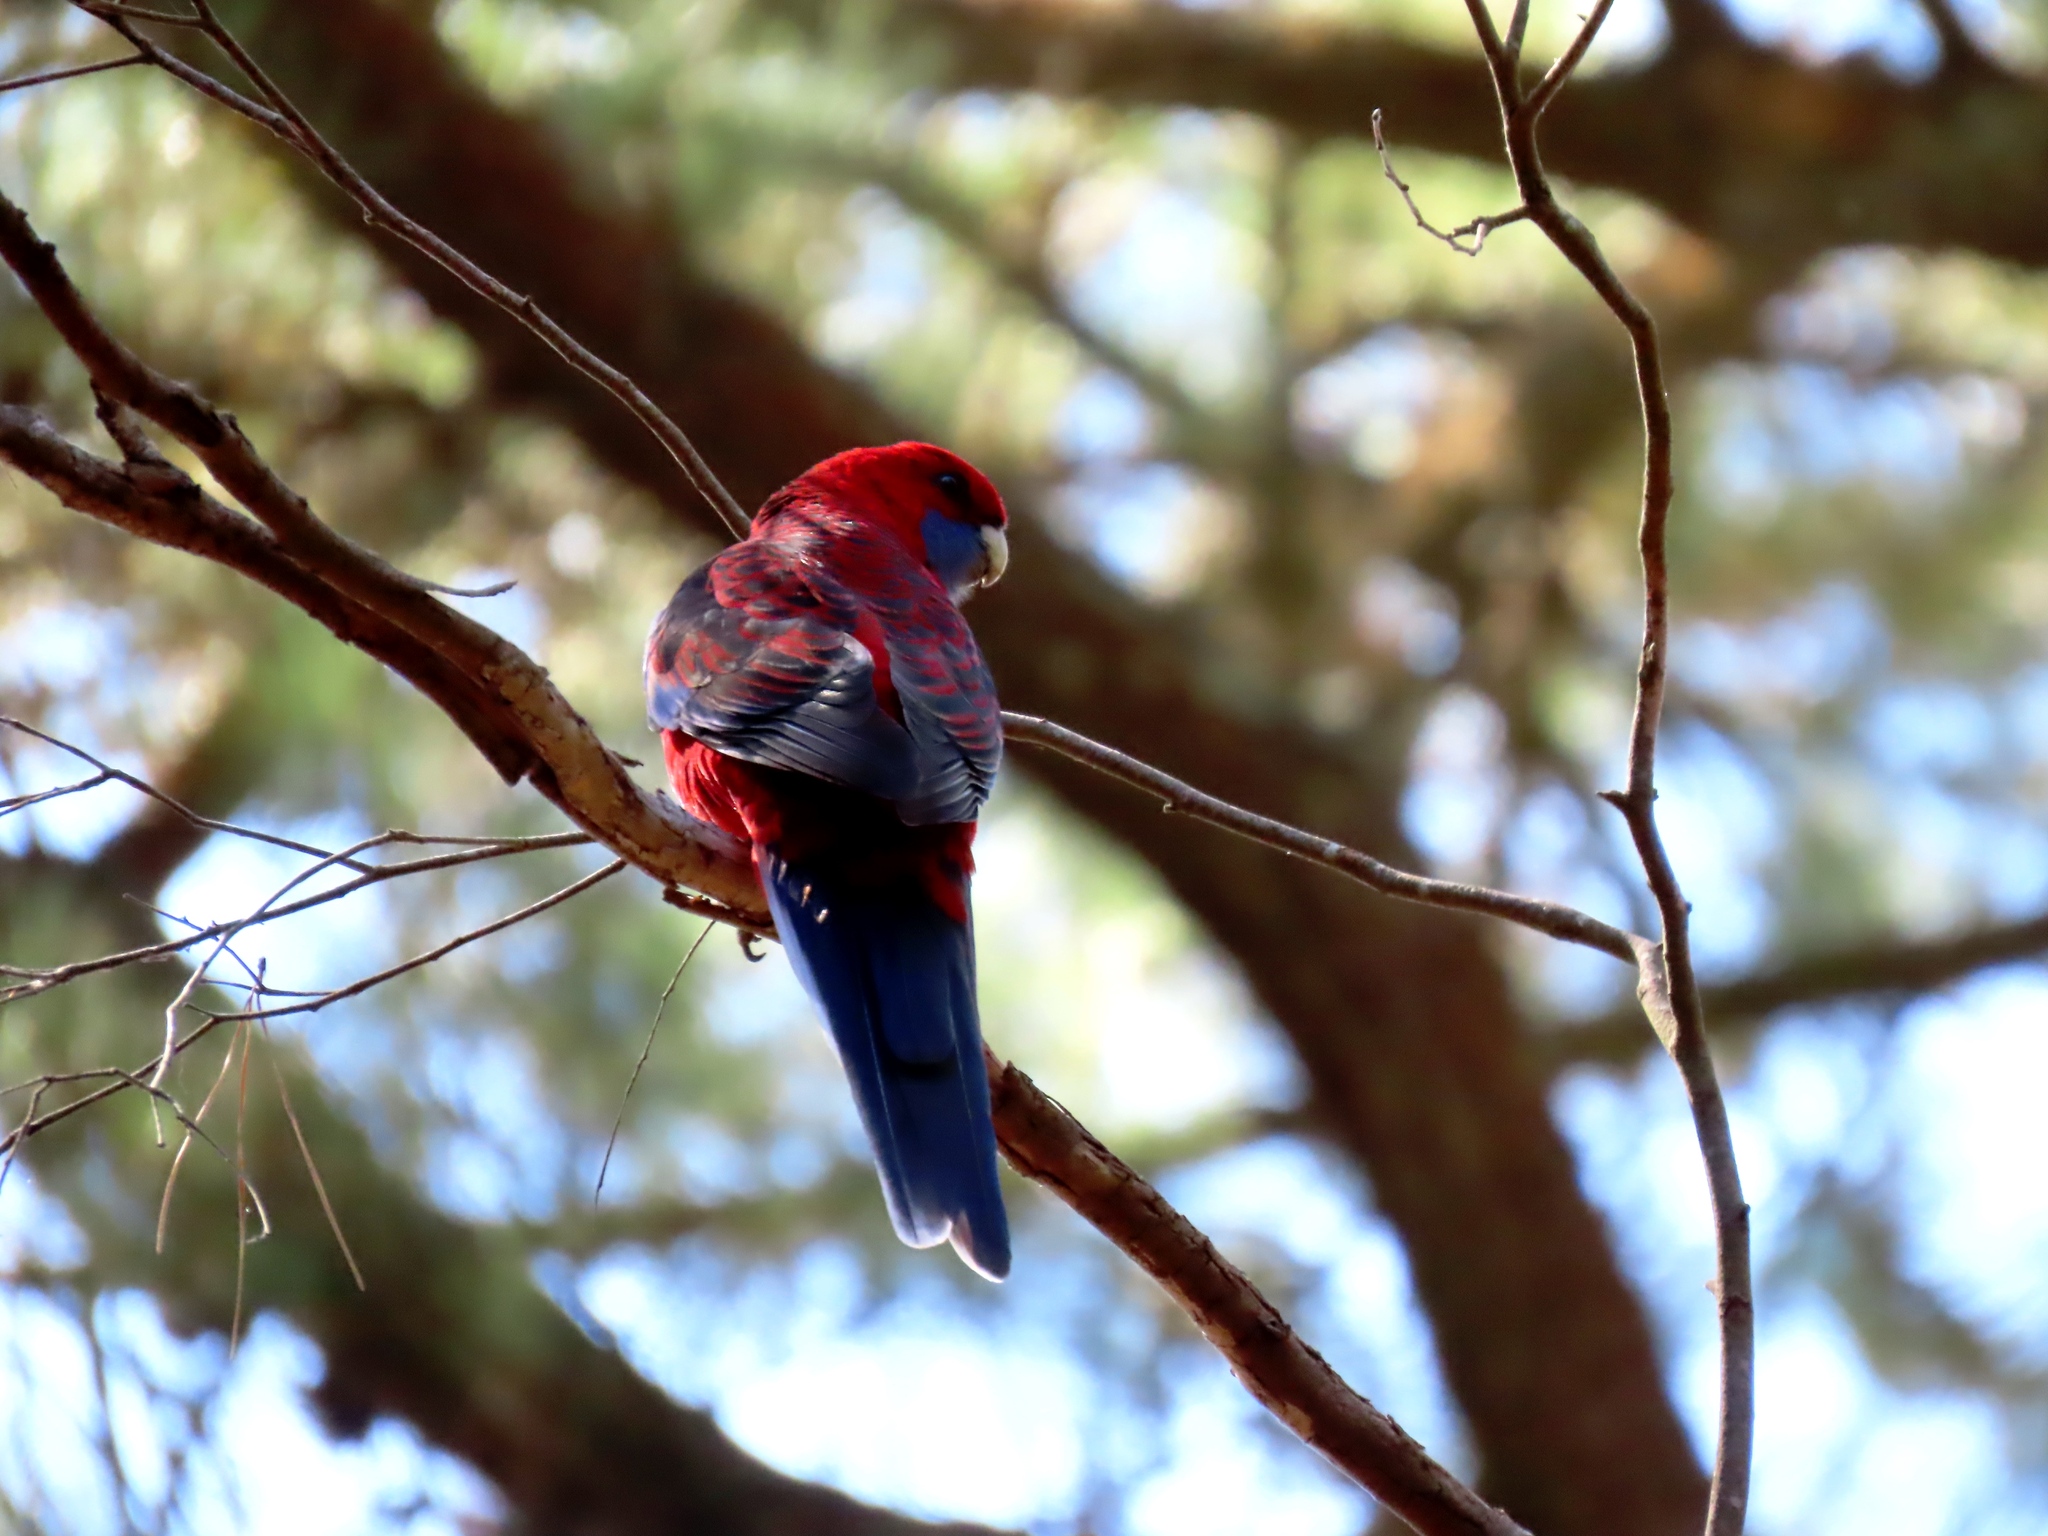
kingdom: Animalia
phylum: Chordata
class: Aves
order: Psittaciformes
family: Psittacidae
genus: Platycercus
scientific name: Platycercus elegans
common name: Crimson rosella
